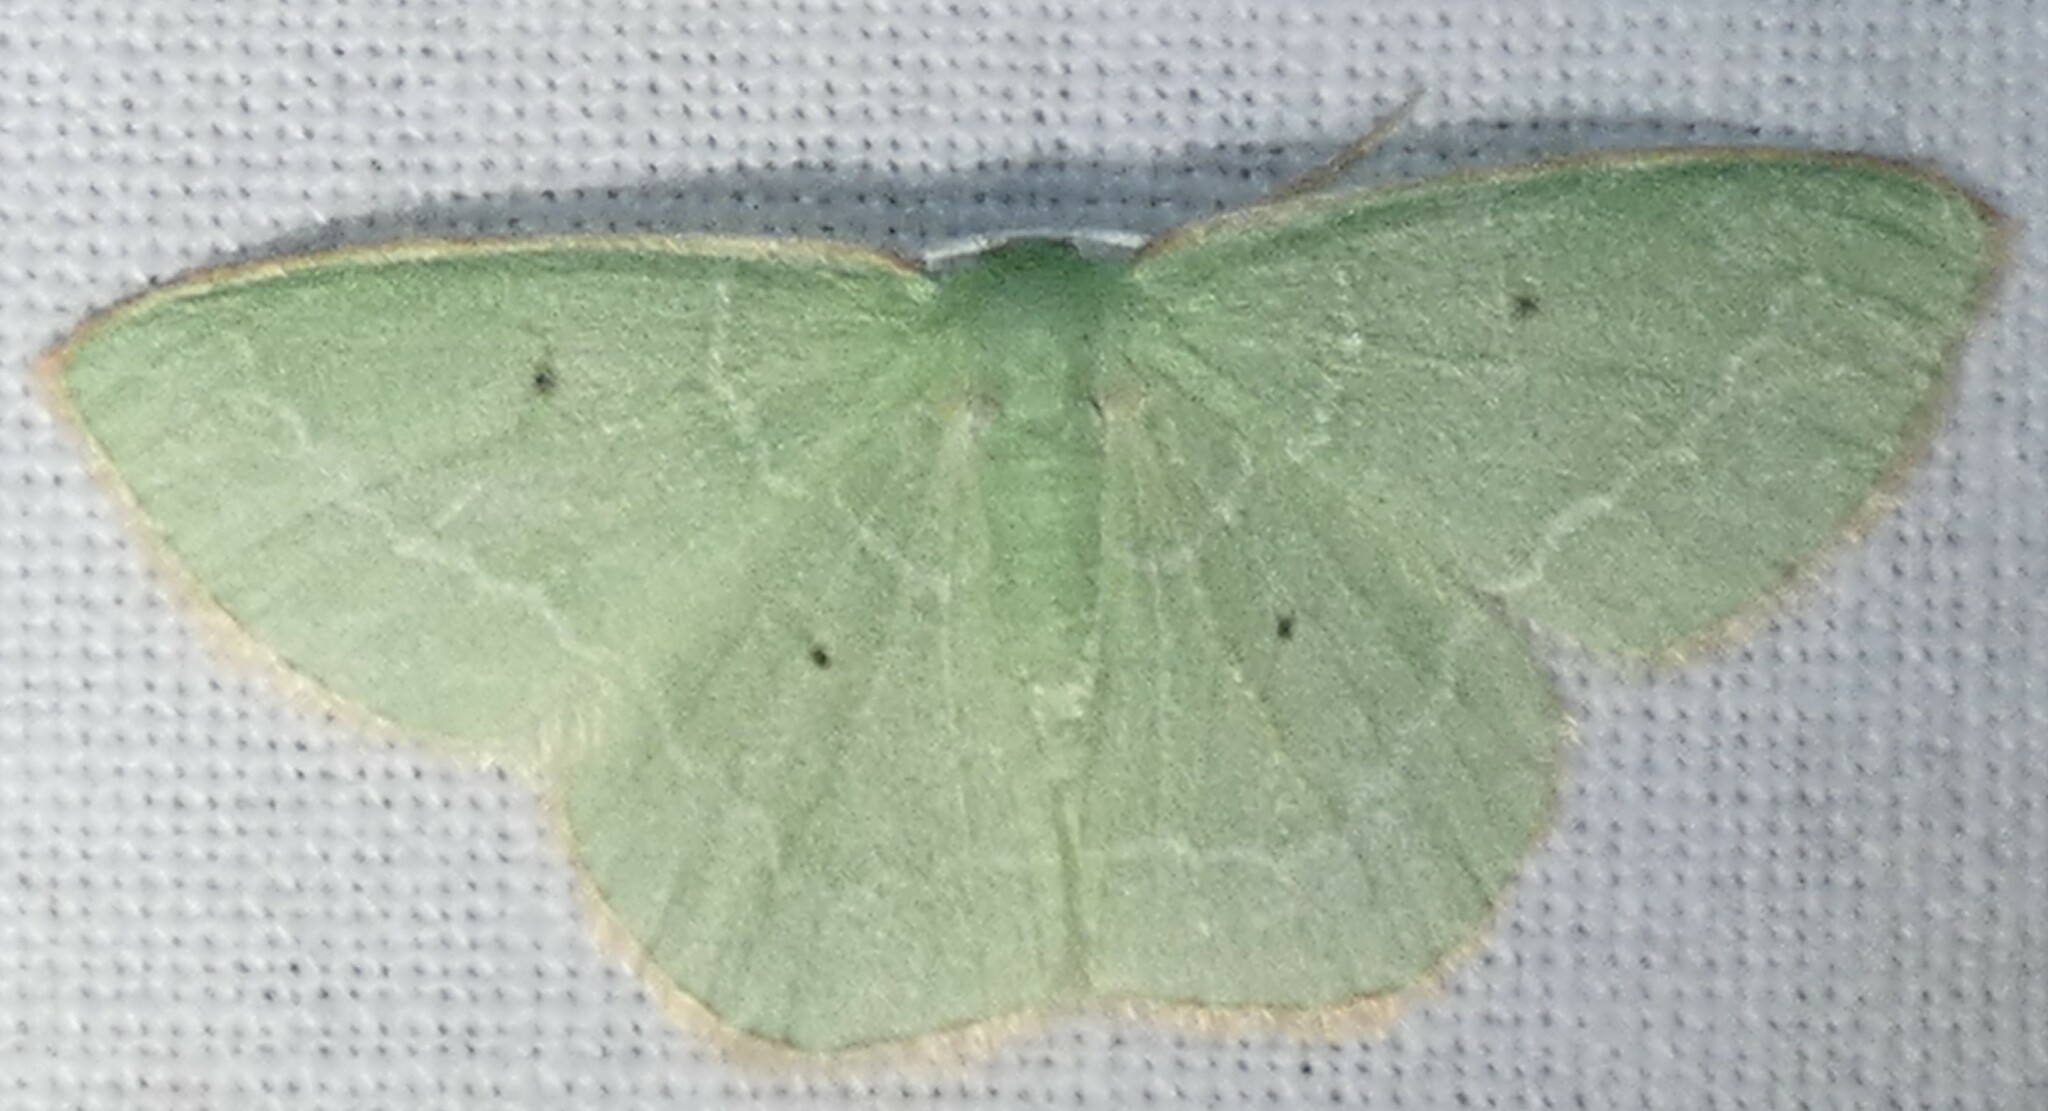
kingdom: Animalia
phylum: Arthropoda
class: Insecta
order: Lepidoptera
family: Geometridae
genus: Nemoria
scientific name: Nemoria elfa
